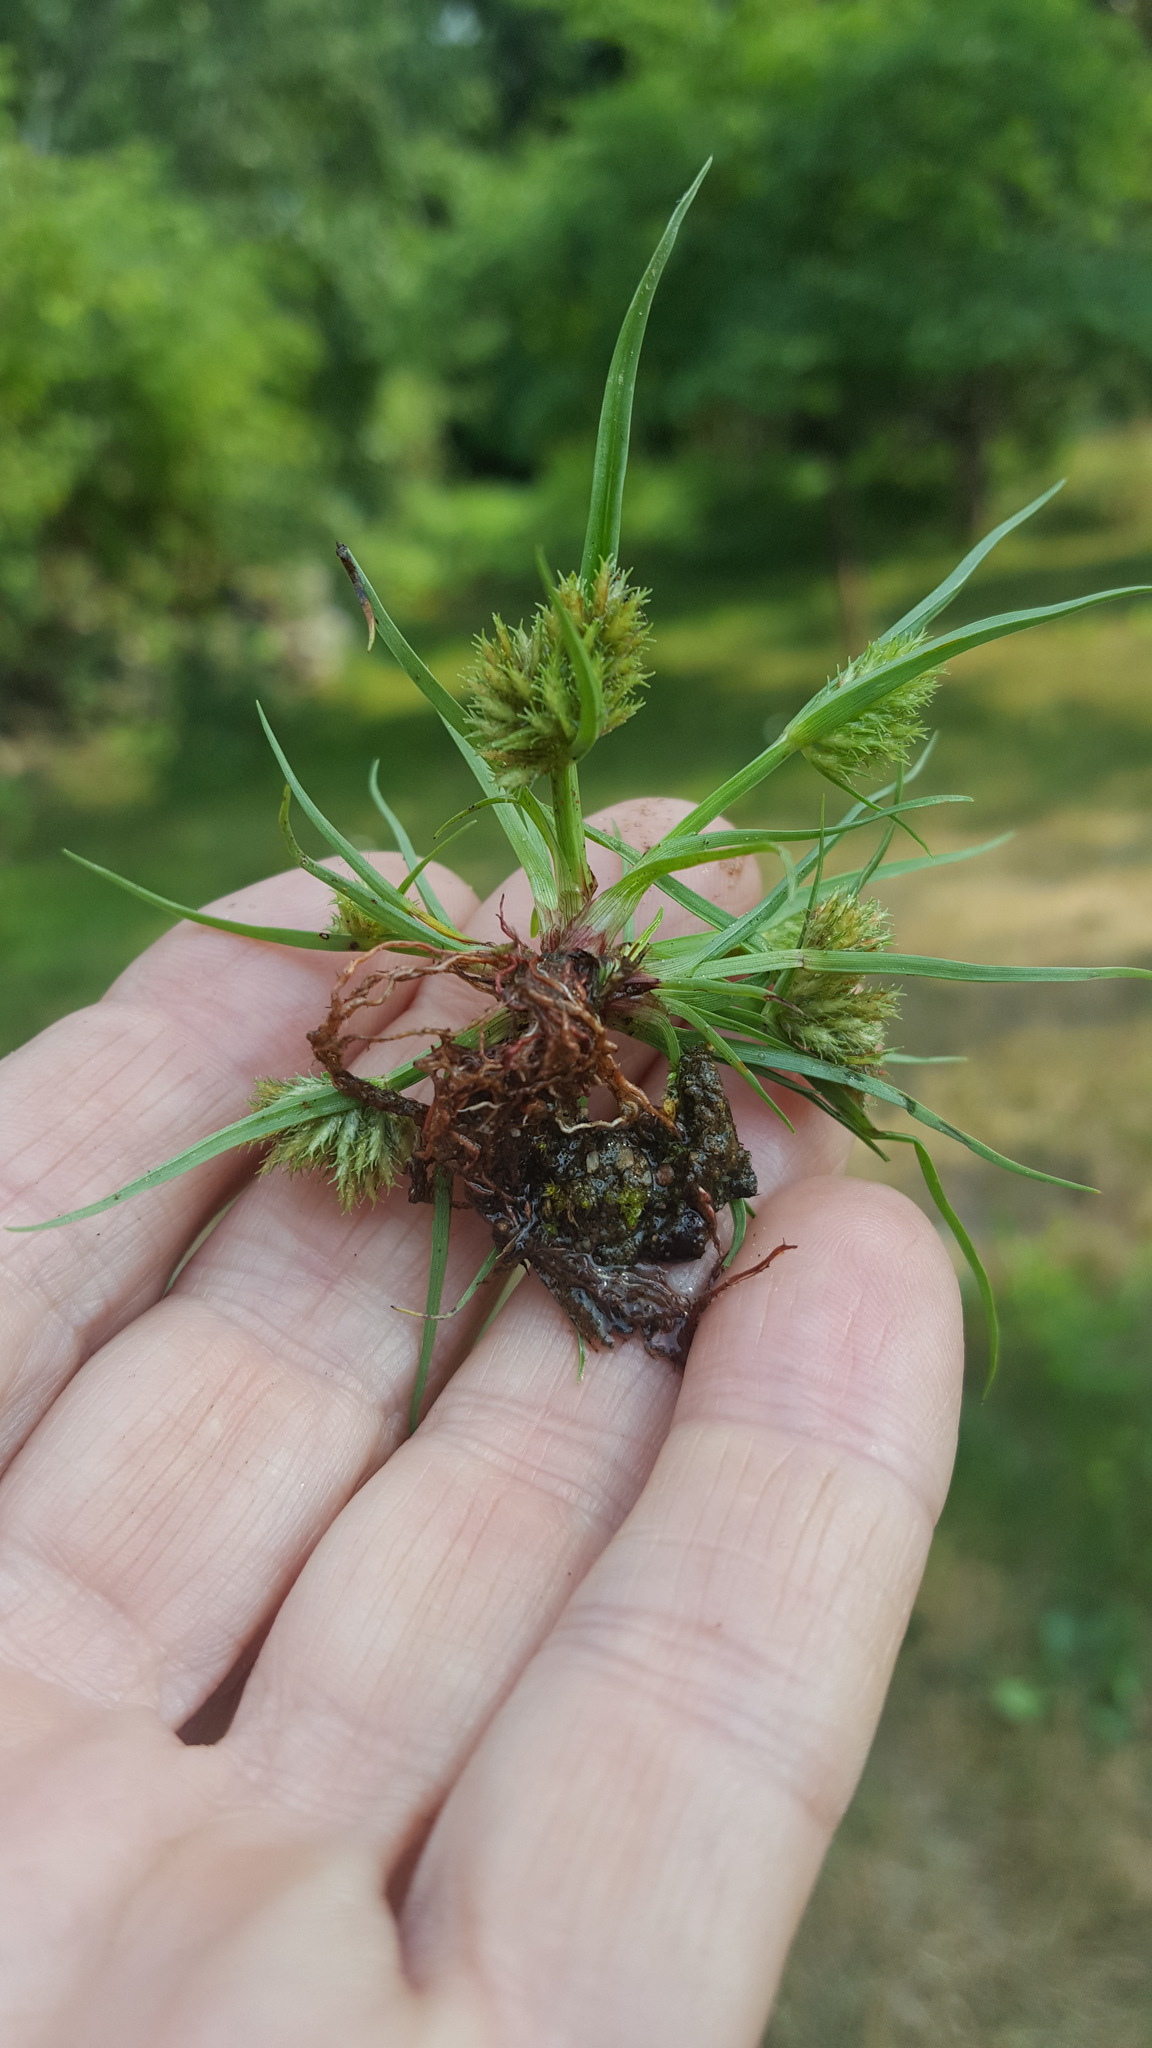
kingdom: Plantae
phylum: Tracheophyta
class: Liliopsida
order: Poales
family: Cyperaceae
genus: Cyperus
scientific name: Cyperus squarrosus
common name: Awned cyperus
